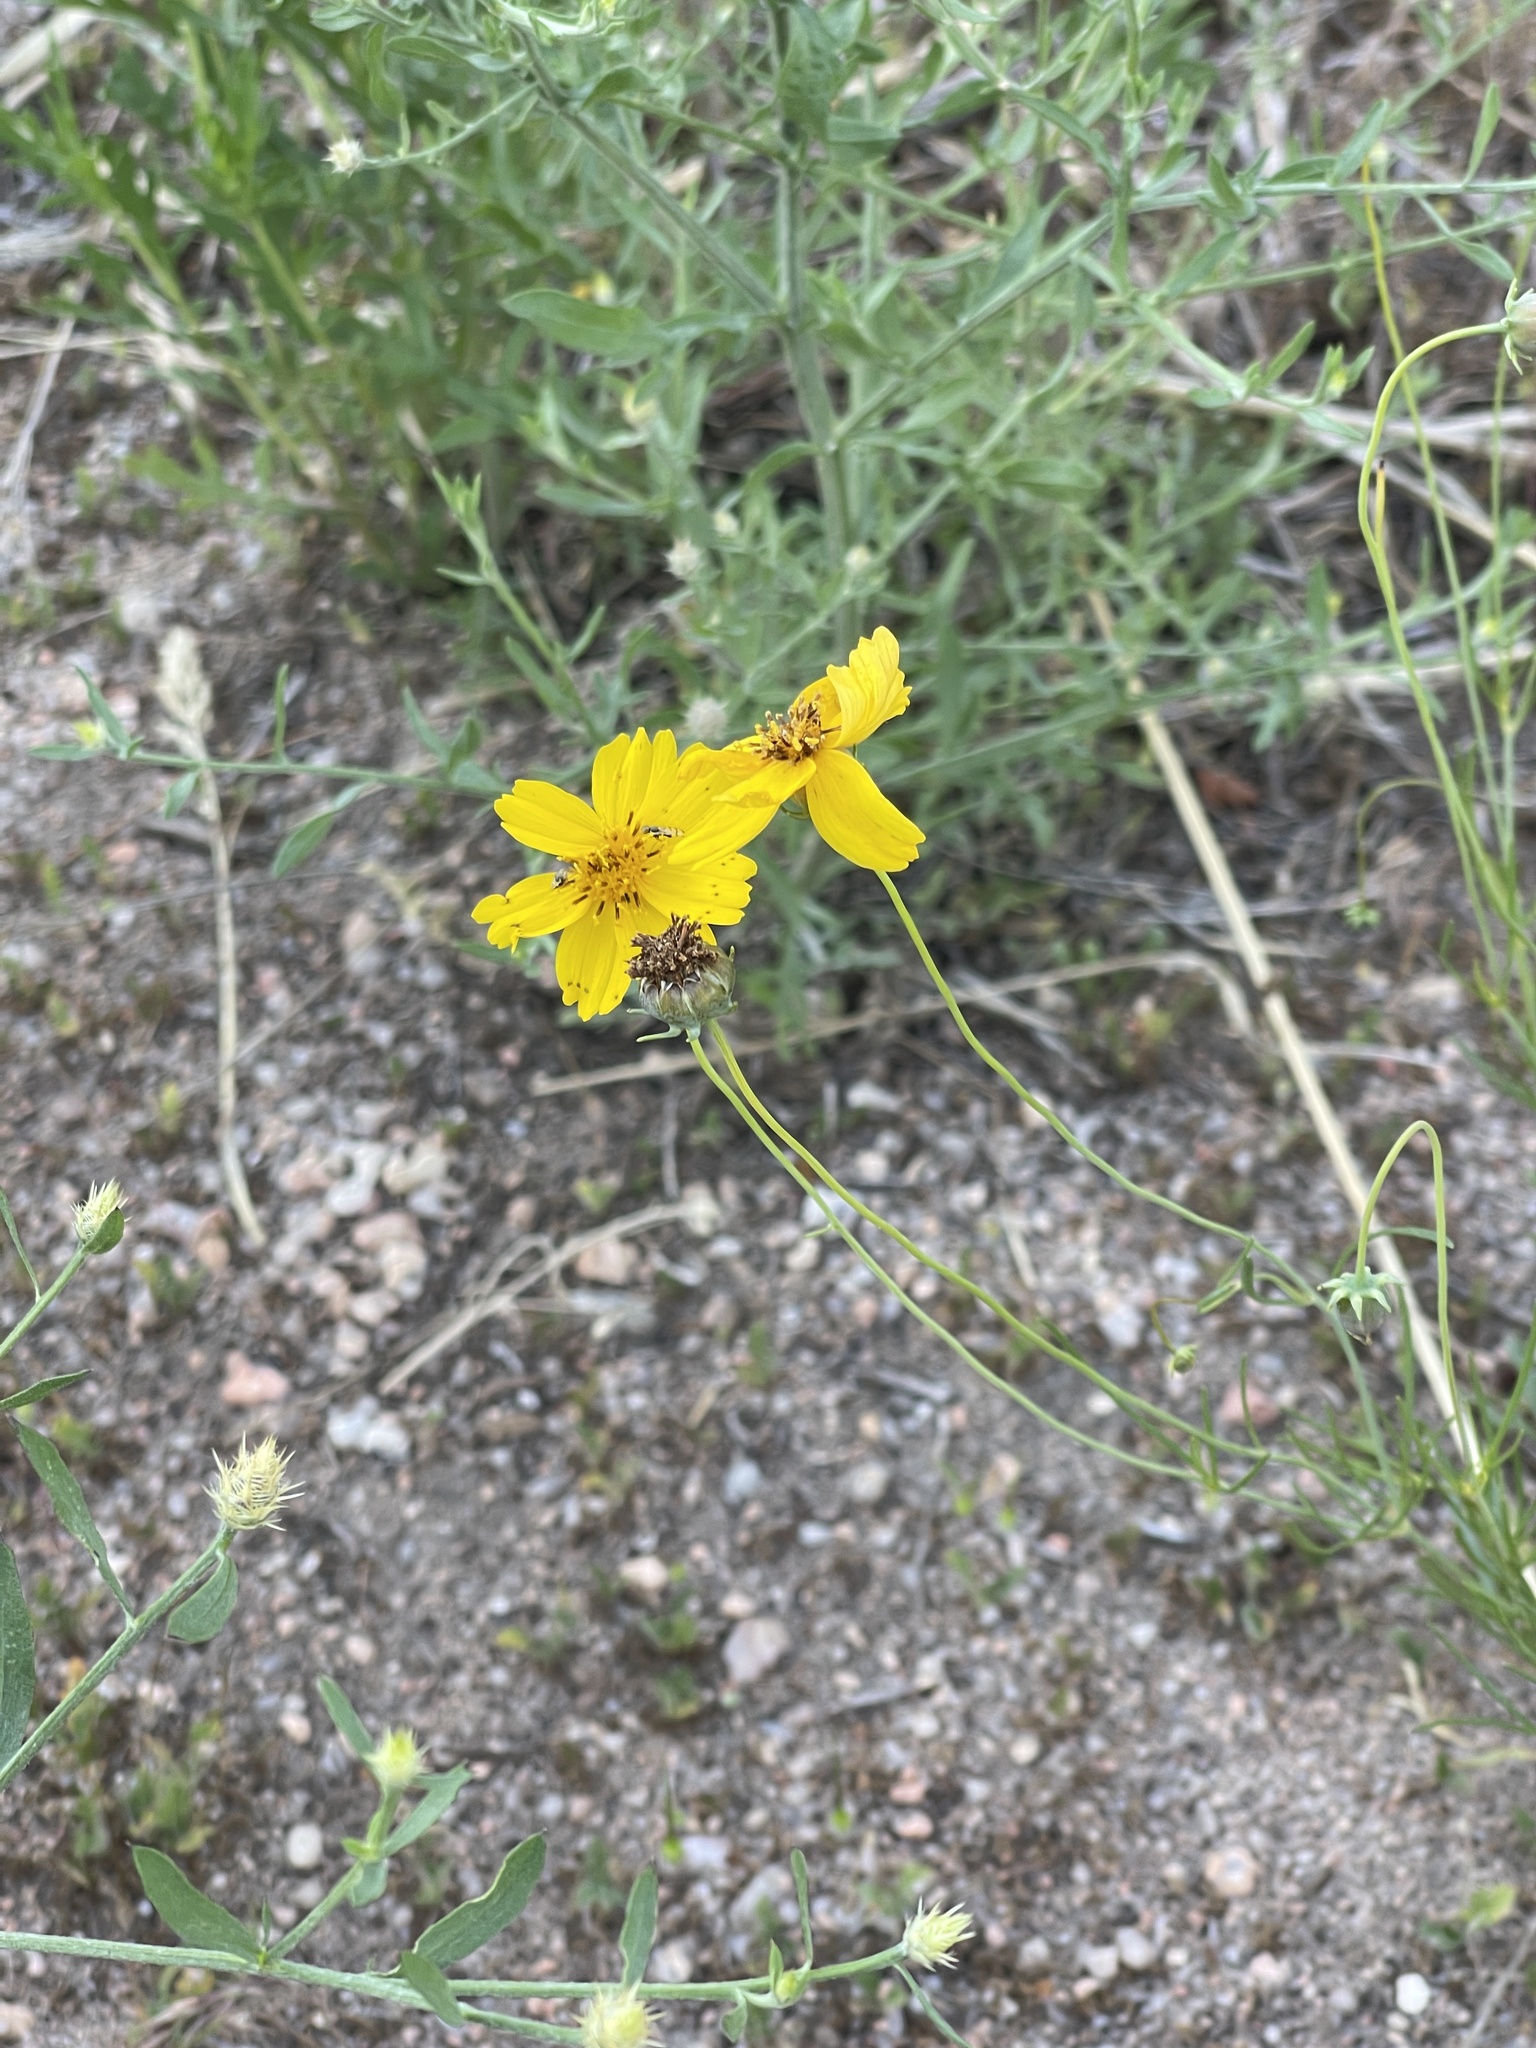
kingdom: Plantae
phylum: Tracheophyta
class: Magnoliopsida
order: Asterales
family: Asteraceae
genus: Thelesperma
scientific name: Thelesperma filifolium
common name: Stiff greenthread
